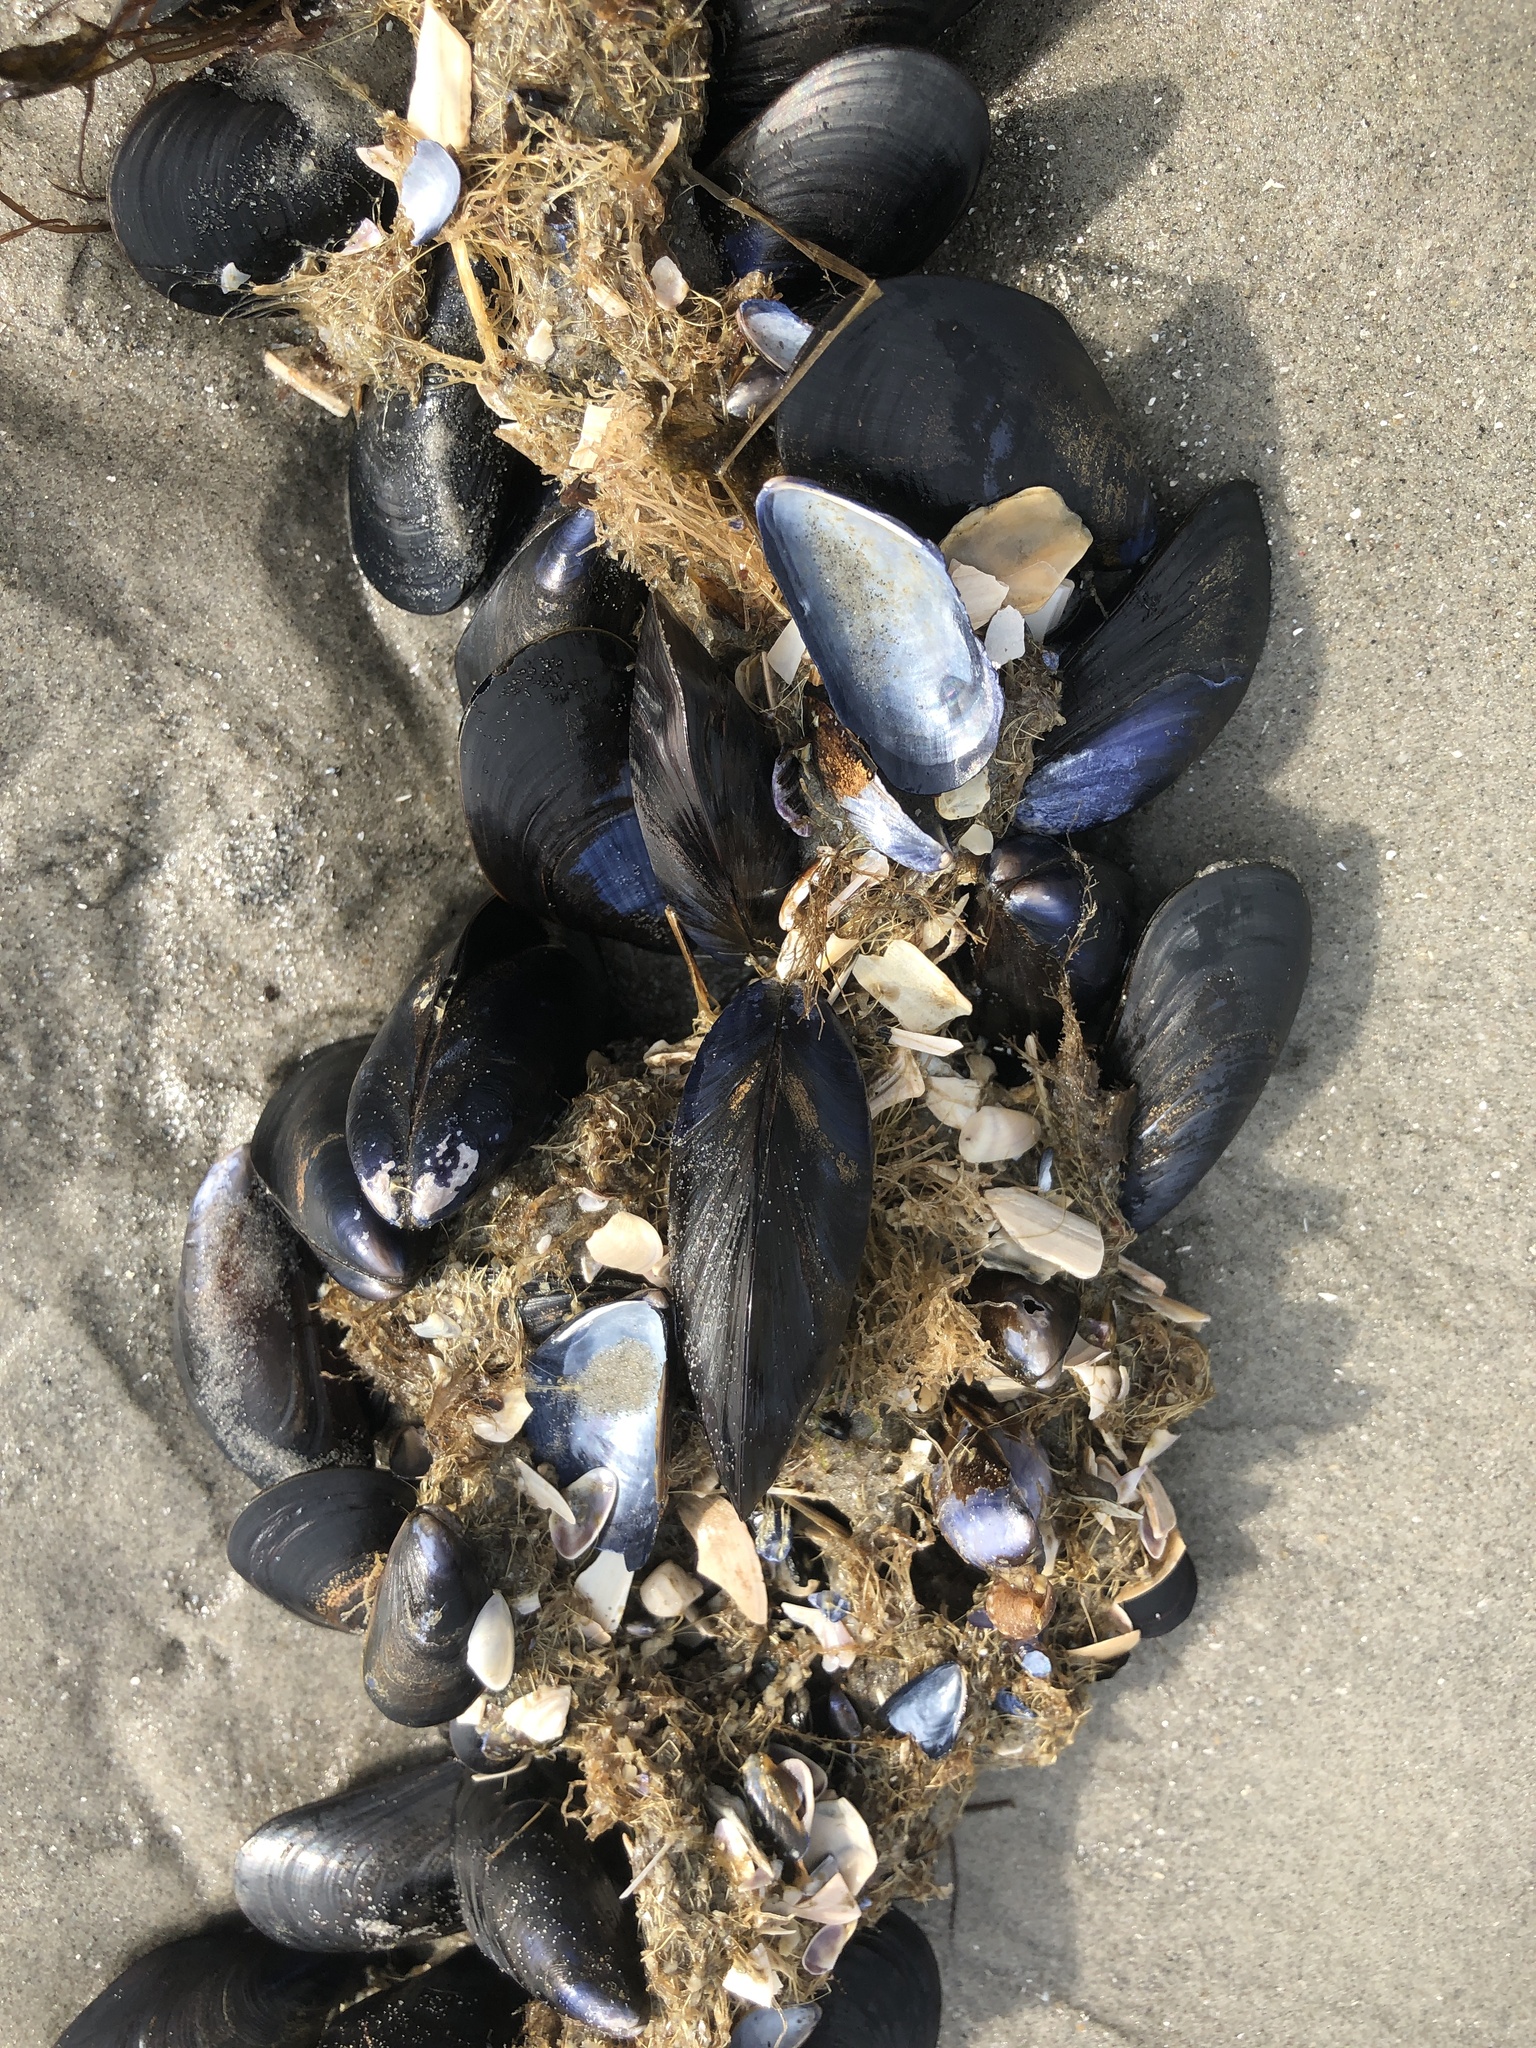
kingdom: Animalia
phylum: Mollusca
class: Bivalvia
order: Mytilida
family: Mytilidae
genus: Mytilus
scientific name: Mytilus edulis
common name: Blue mussel
